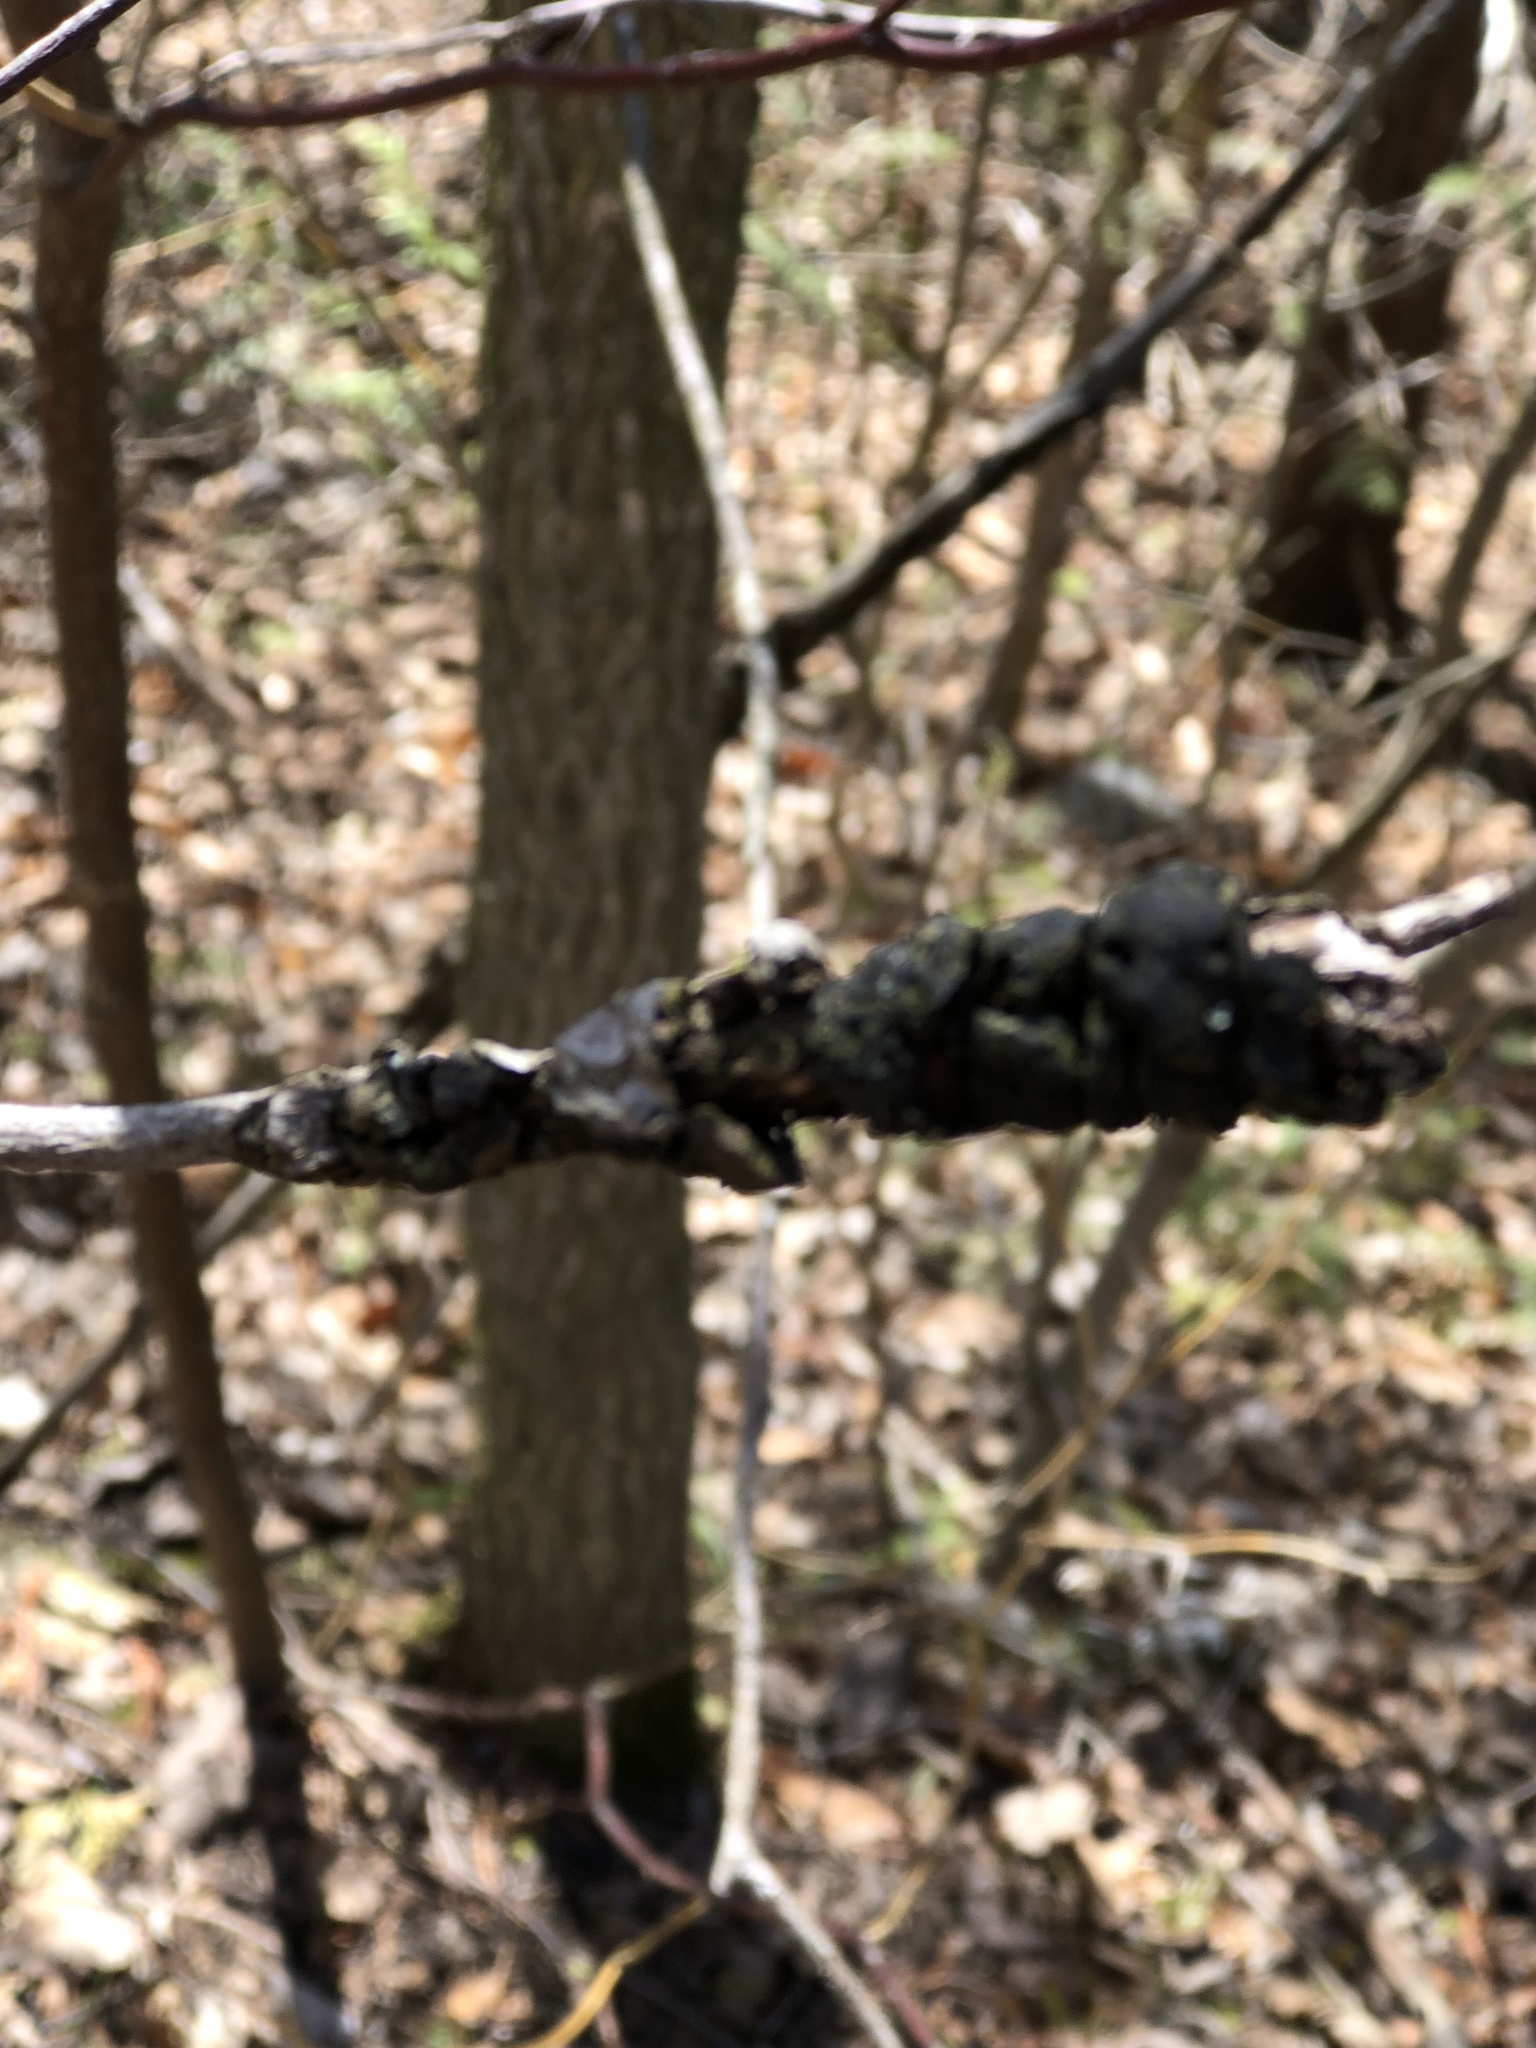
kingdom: Fungi
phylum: Ascomycota
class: Dothideomycetes
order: Venturiales
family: Venturiaceae
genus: Apiosporina
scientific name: Apiosporina morbosa
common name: Black knot
